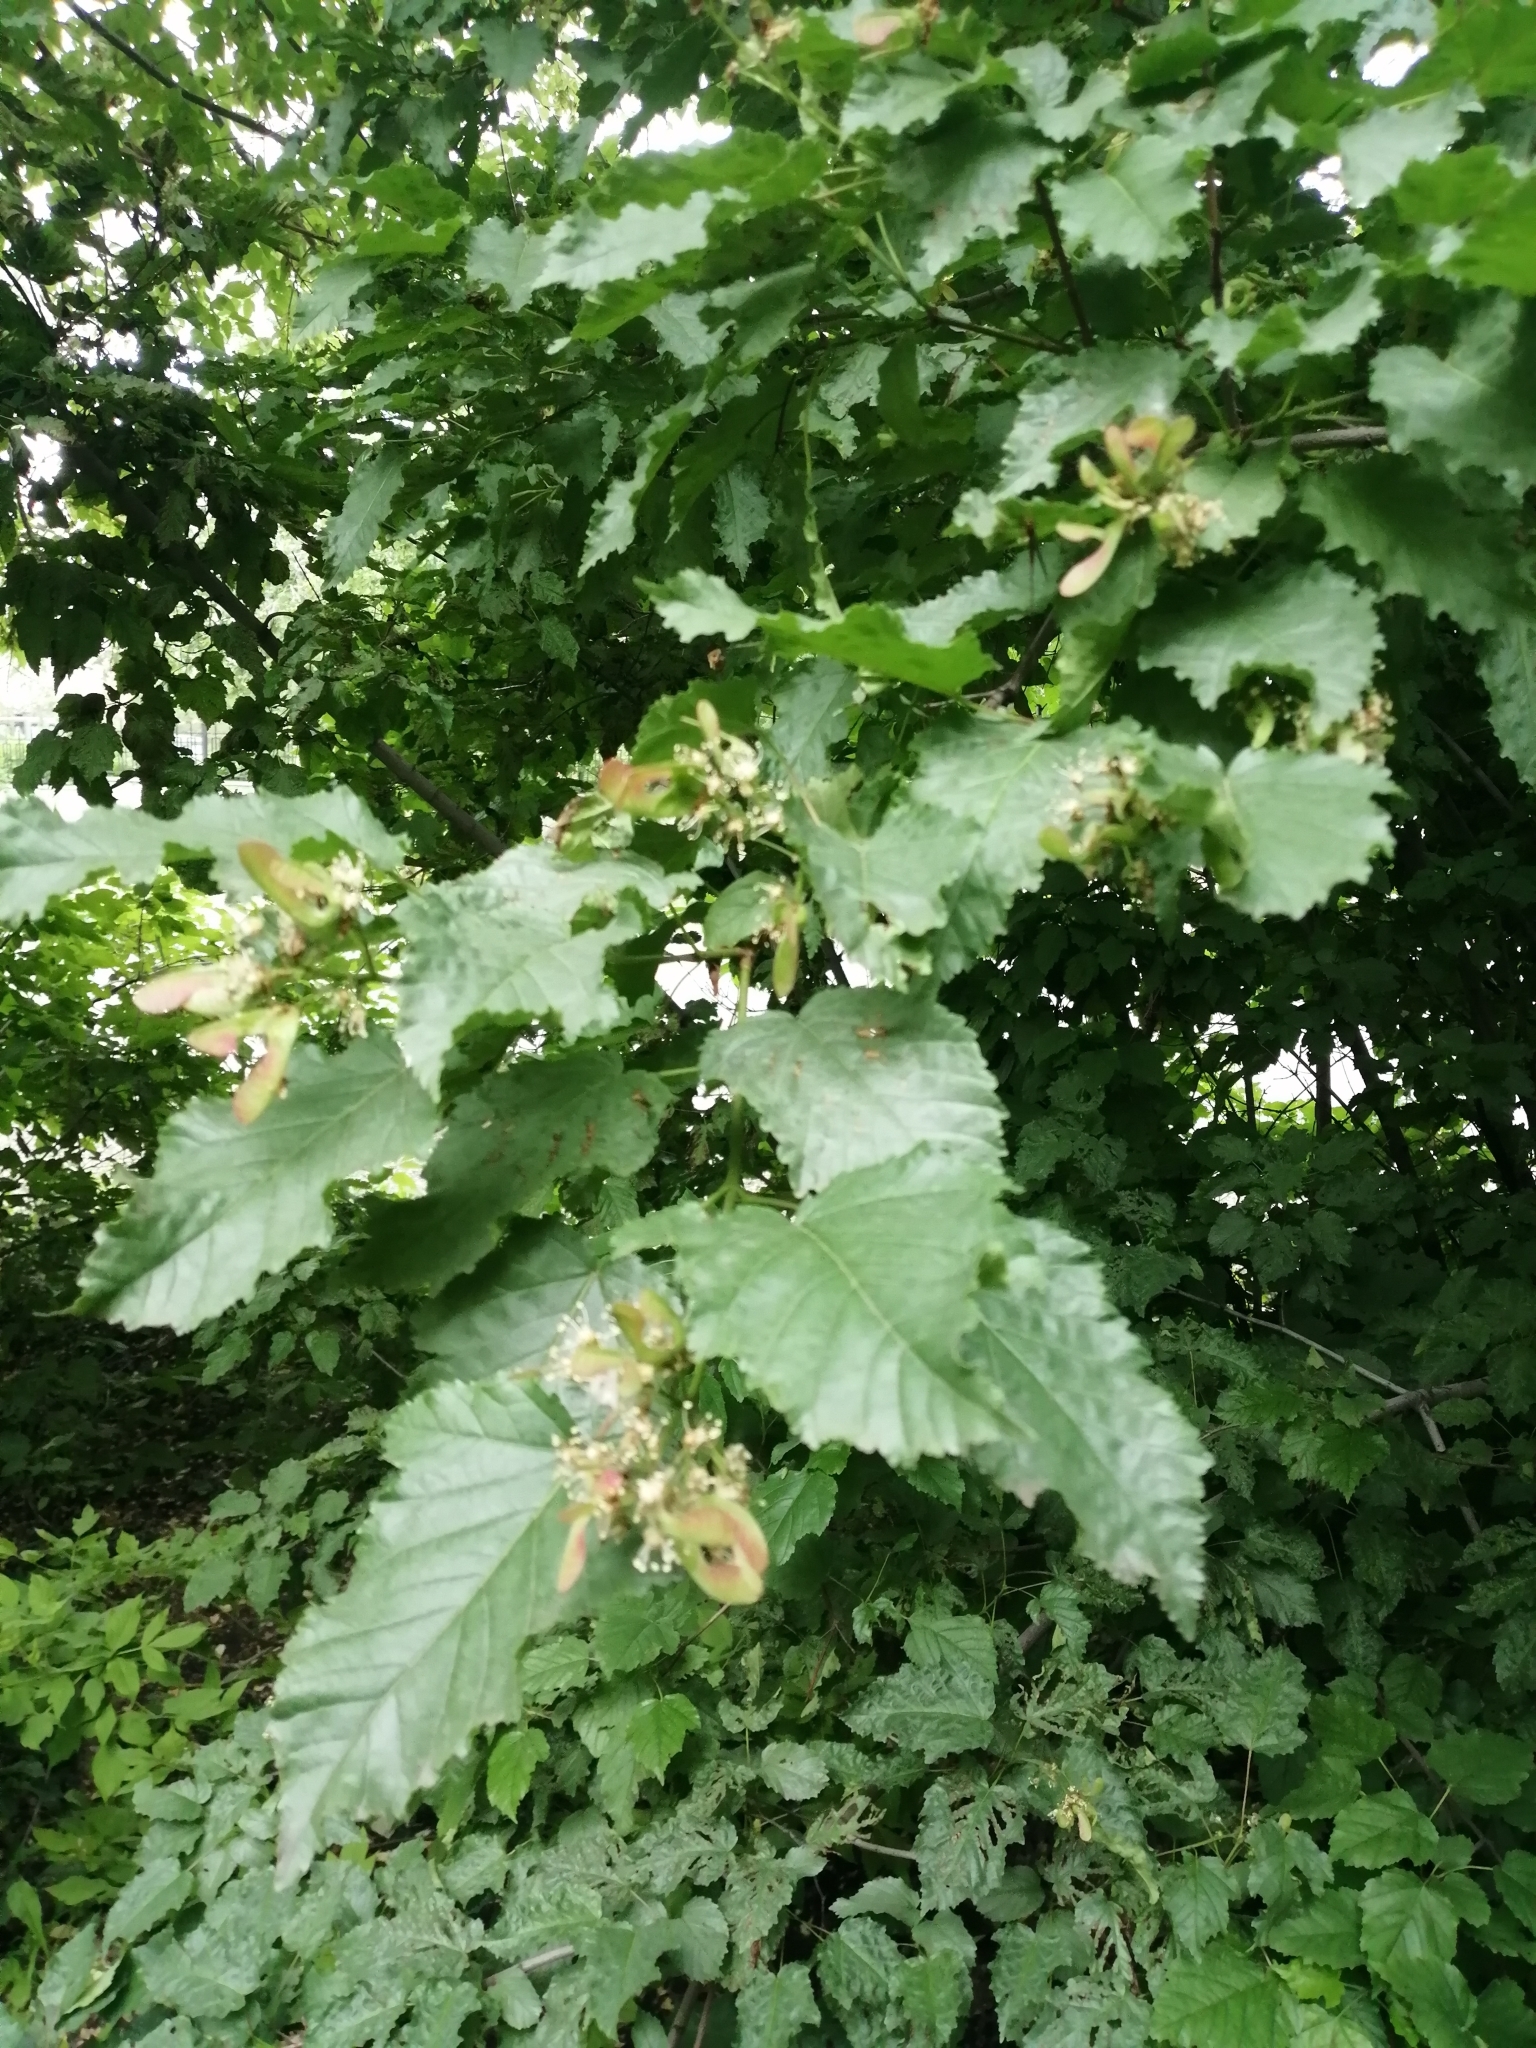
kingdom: Plantae
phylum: Tracheophyta
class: Magnoliopsida
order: Sapindales
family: Sapindaceae
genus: Acer
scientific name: Acer tataricum
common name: Tartar maple
